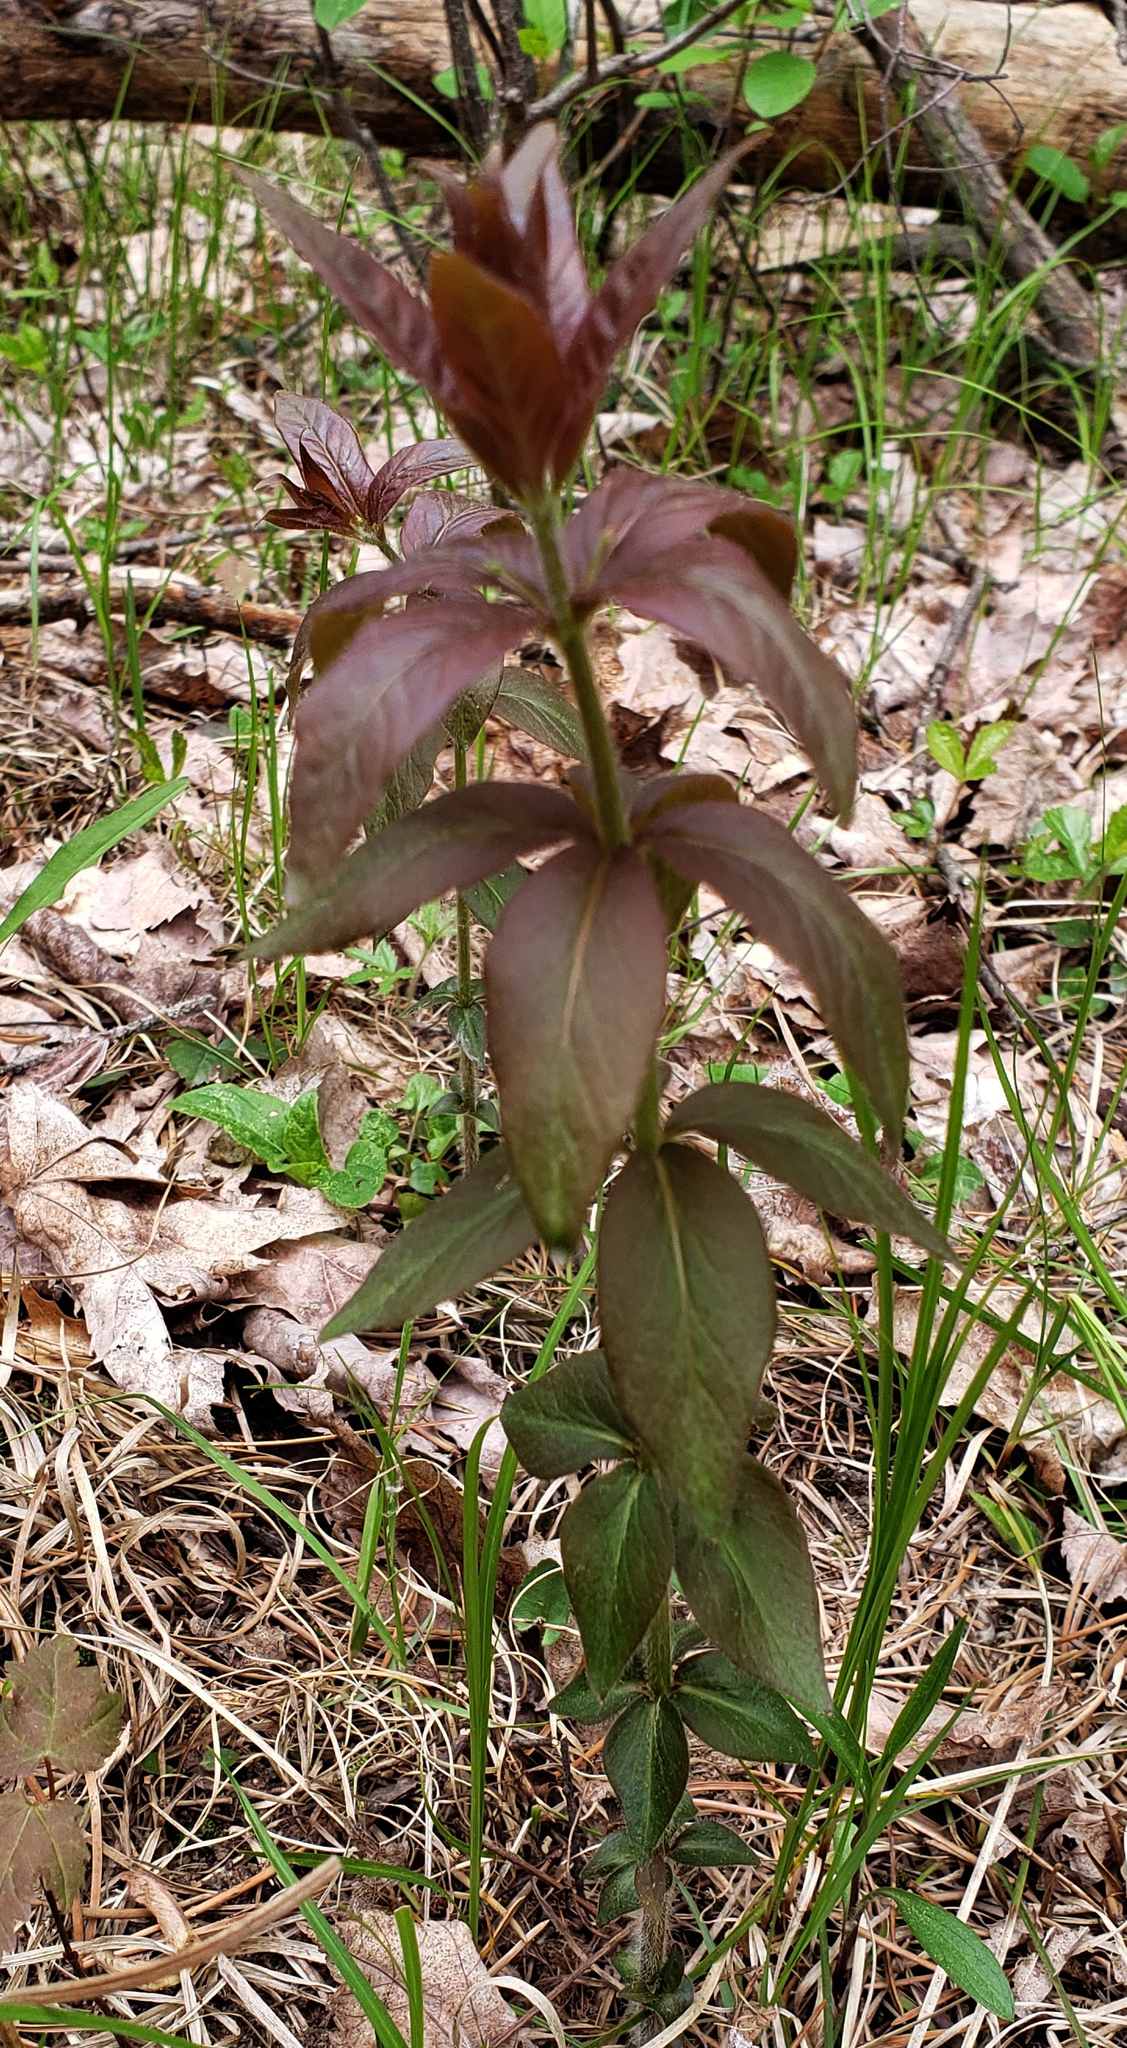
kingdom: Plantae
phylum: Tracheophyta
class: Magnoliopsida
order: Ericales
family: Primulaceae
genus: Lysimachia
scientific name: Lysimachia quadrifolia
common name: Whorled loosestrife
